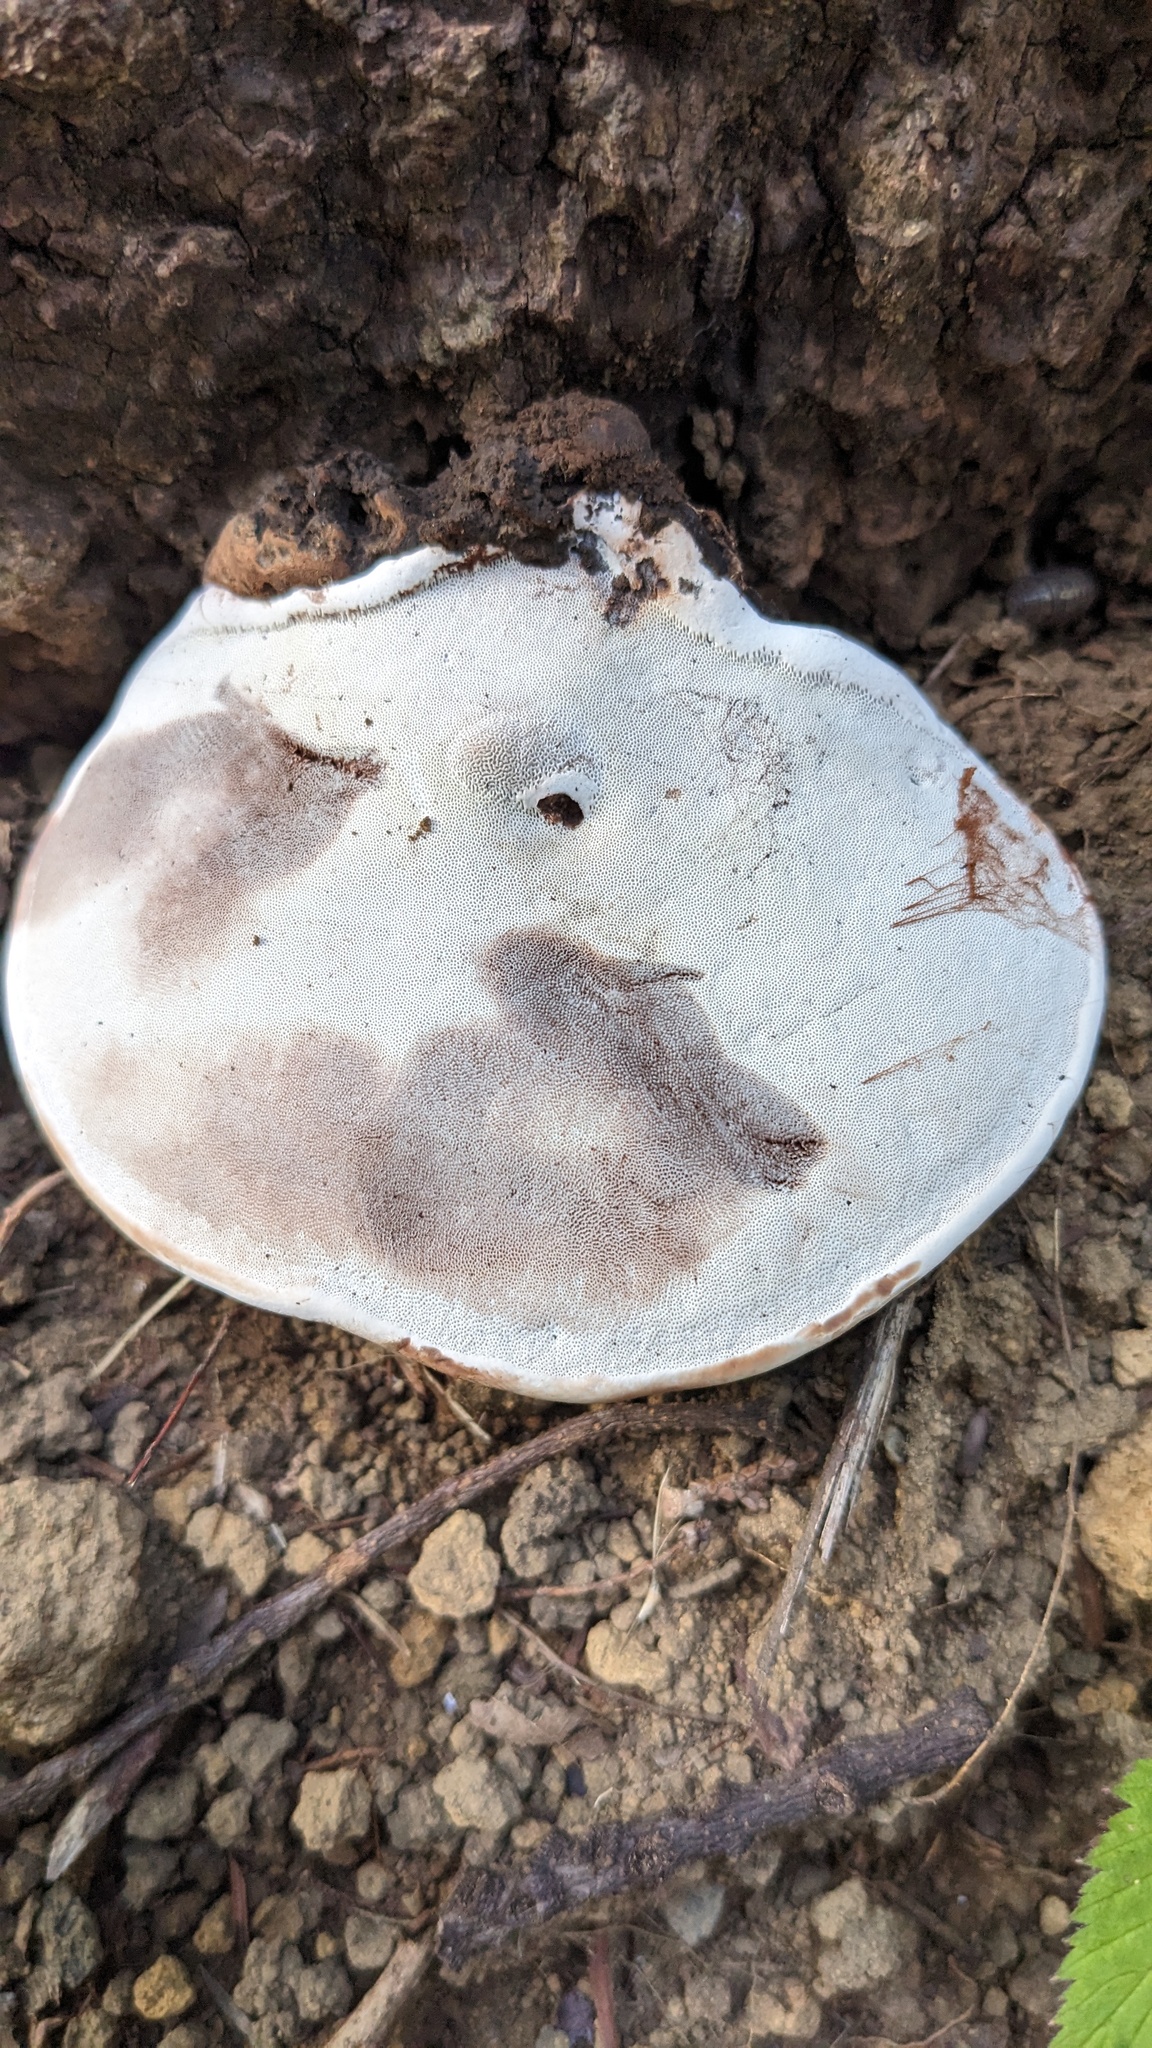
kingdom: Fungi
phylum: Basidiomycota
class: Agaricomycetes
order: Polyporales
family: Polyporaceae
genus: Ganoderma
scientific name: Ganoderma applanatum
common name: Artist's bracket
